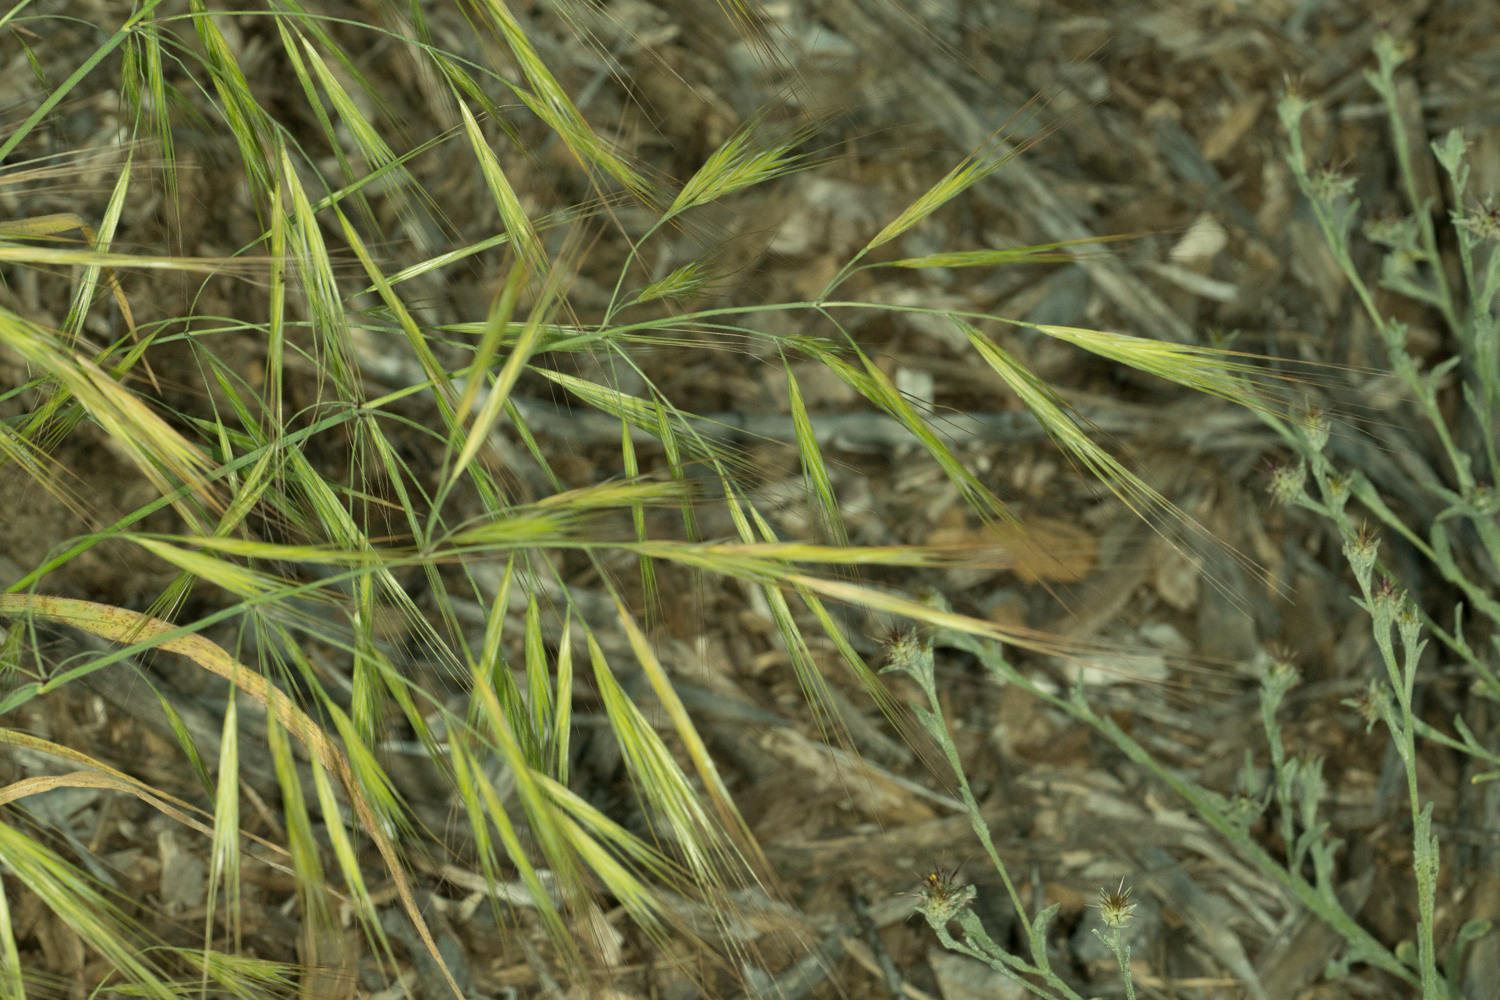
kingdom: Plantae
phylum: Tracheophyta
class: Liliopsida
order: Poales
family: Poaceae
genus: Bromus
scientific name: Bromus diandrus
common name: Ripgut brome
